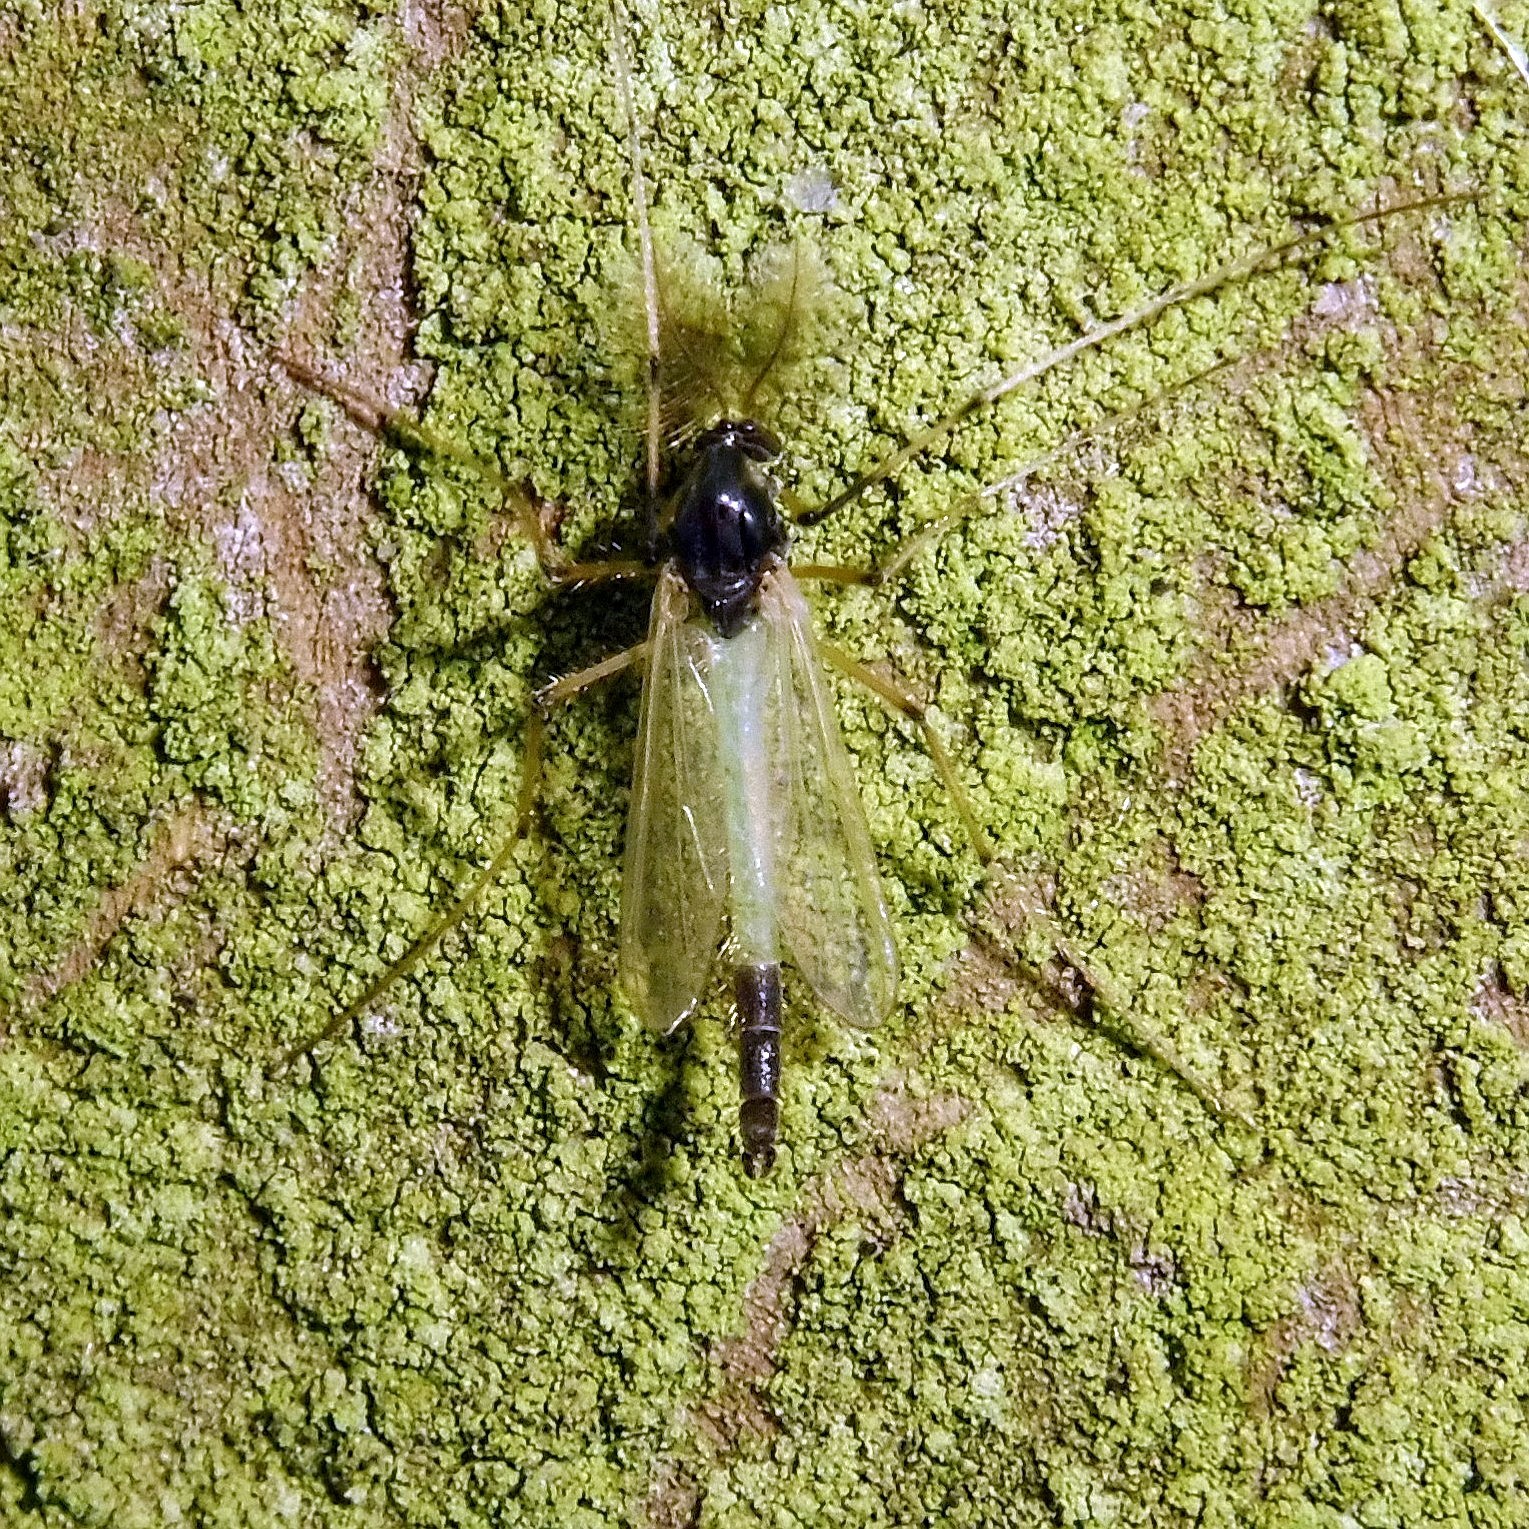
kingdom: Animalia
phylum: Arthropoda
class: Insecta
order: Diptera
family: Chironomidae
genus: Microtendipes
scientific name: Microtendipes pedellus
